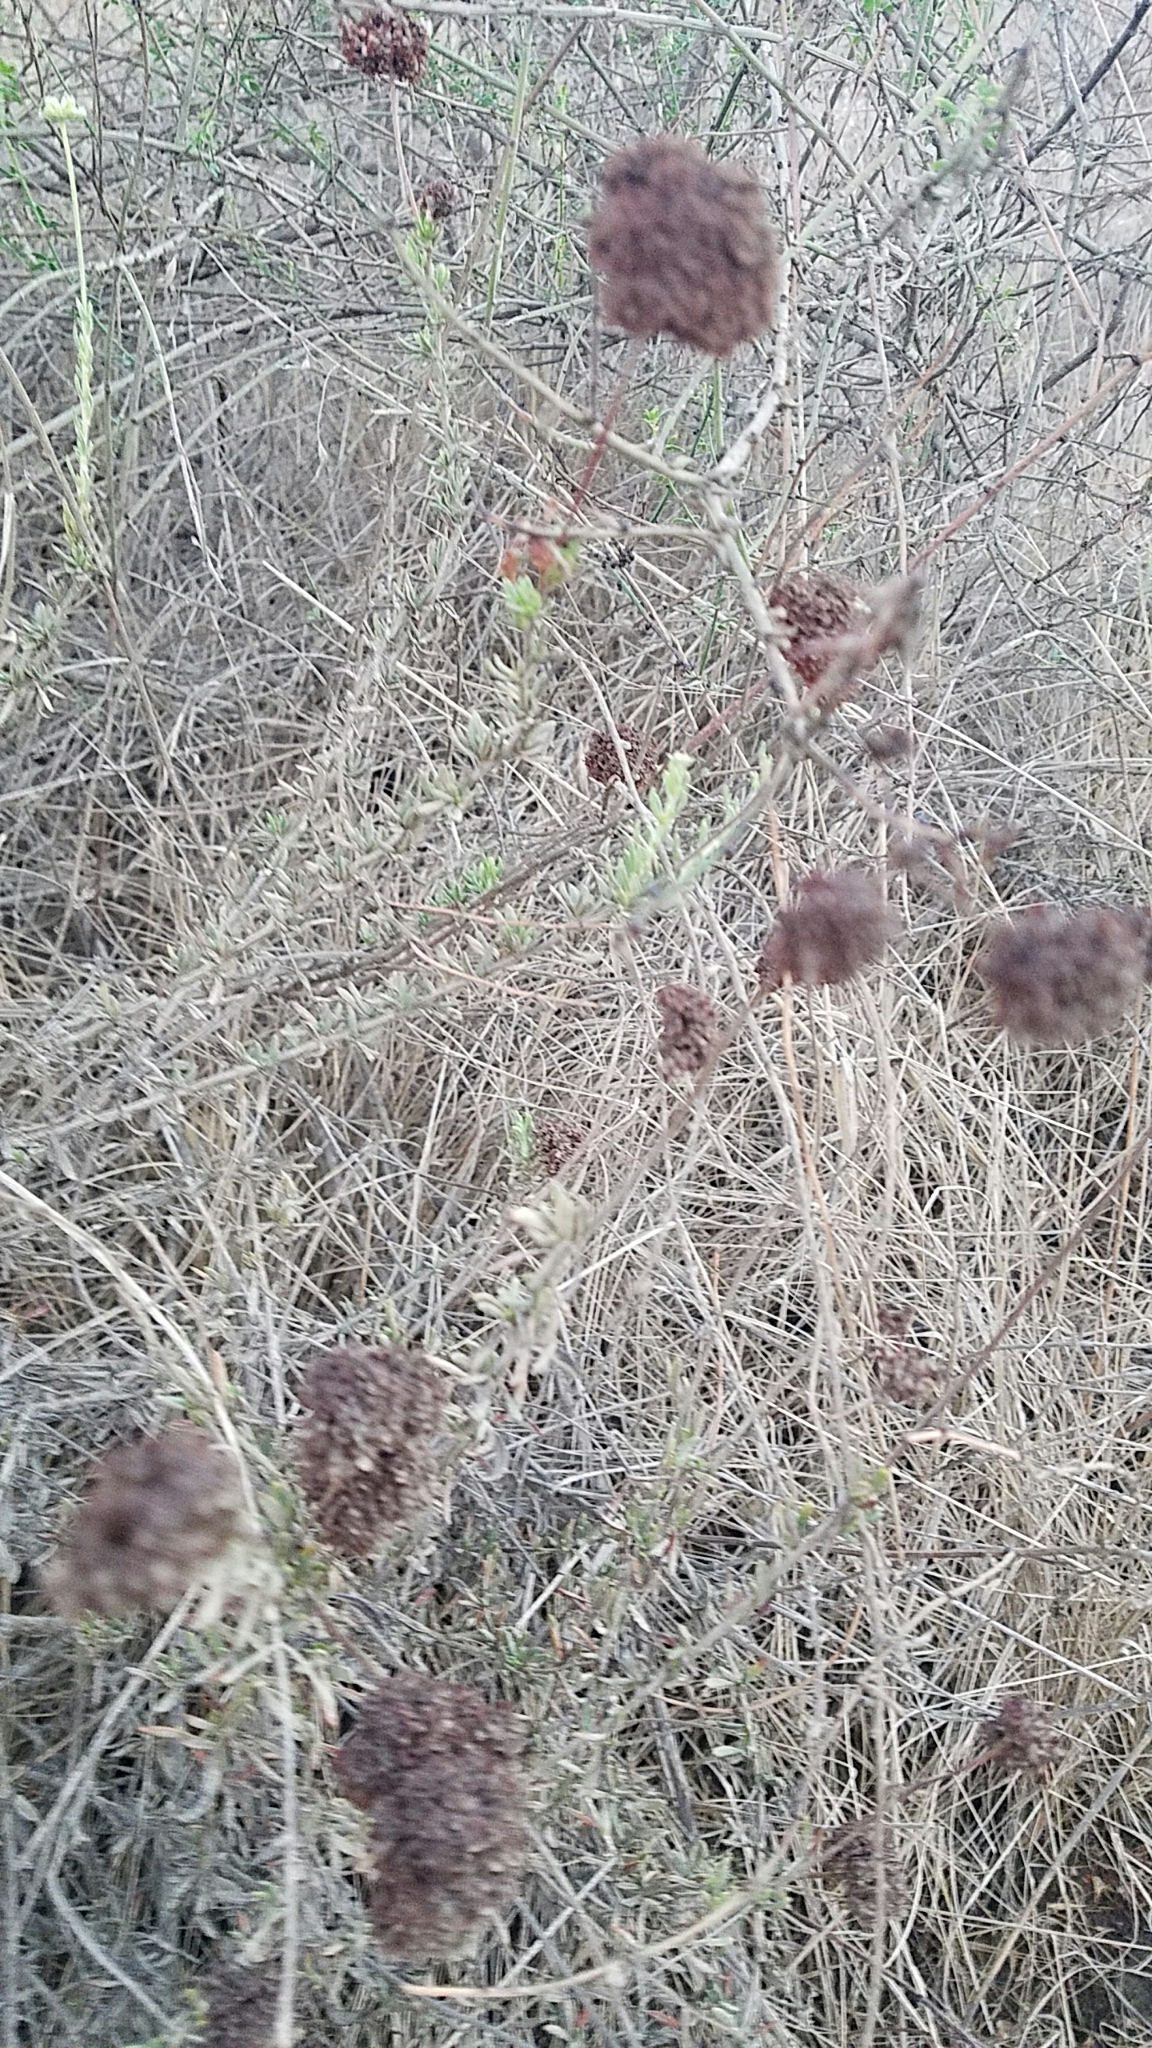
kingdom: Plantae
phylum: Tracheophyta
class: Magnoliopsida
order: Caryophyllales
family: Polygonaceae
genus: Eriogonum
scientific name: Eriogonum fasciculatum
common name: California wild buckwheat
